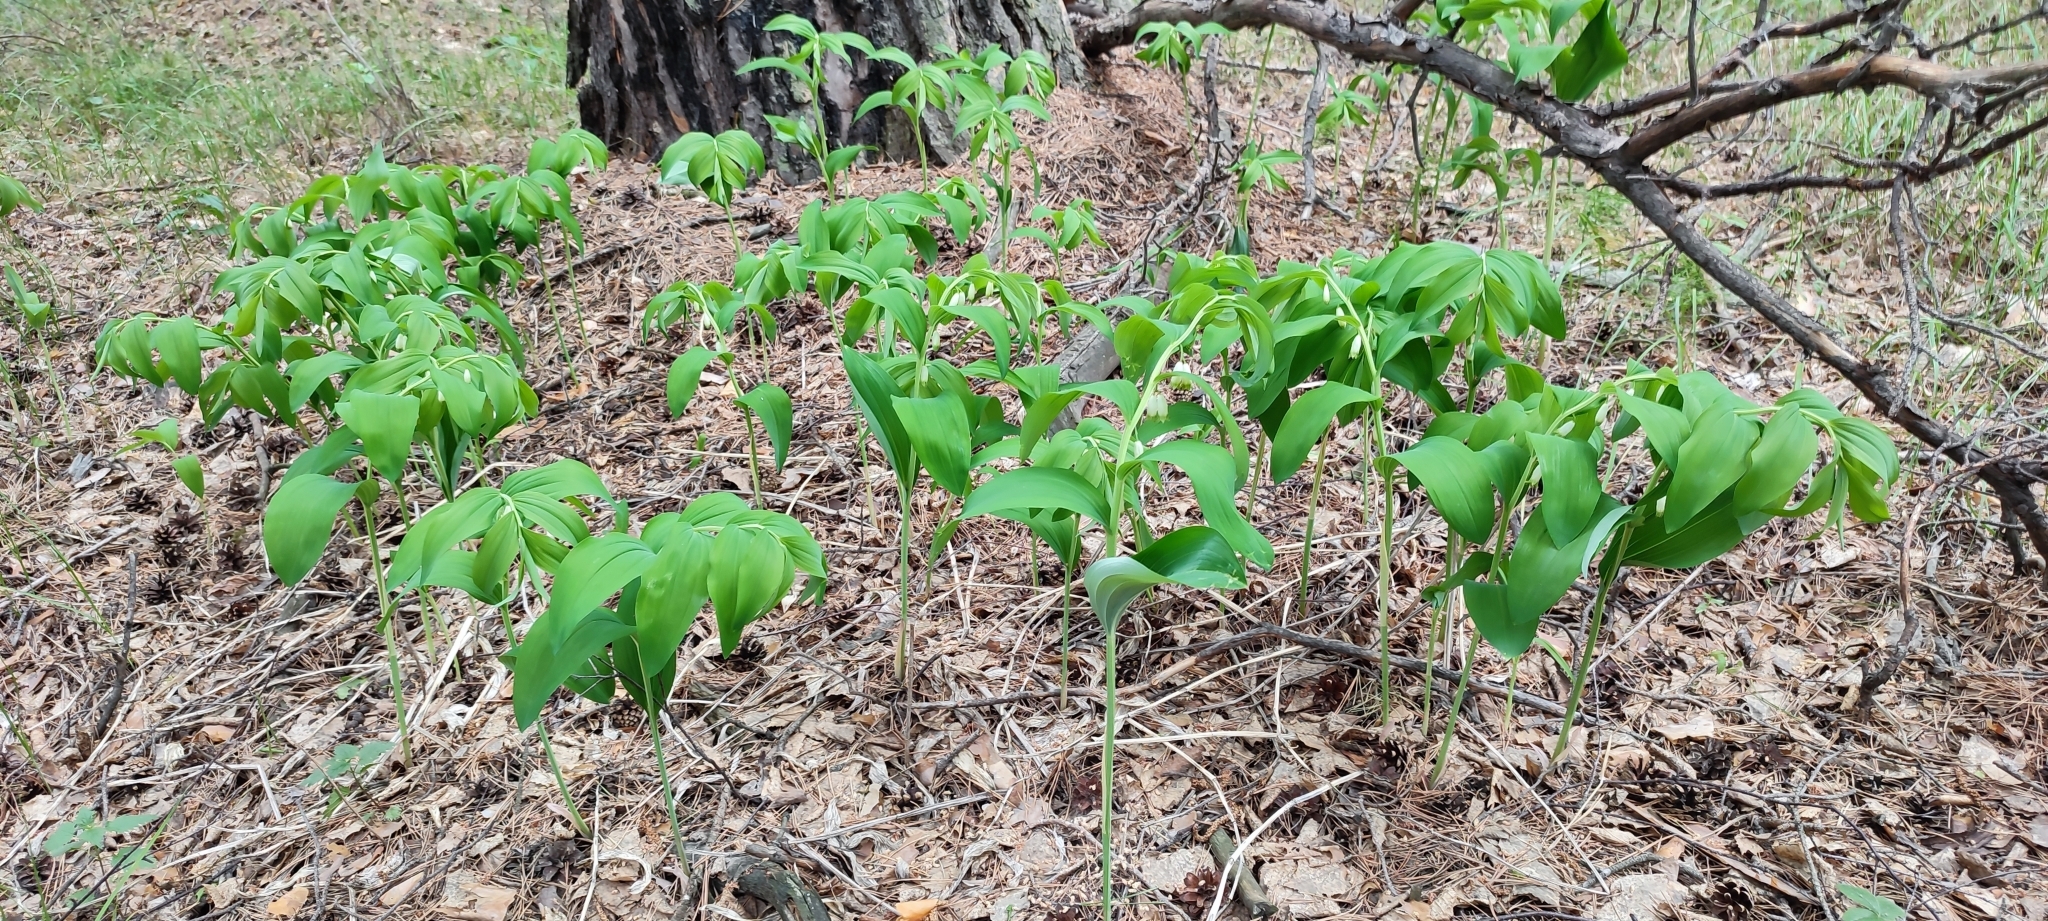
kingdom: Plantae
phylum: Tracheophyta
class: Liliopsida
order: Asparagales
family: Asparagaceae
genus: Polygonatum
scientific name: Polygonatum odoratum
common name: Angular solomon's-seal
